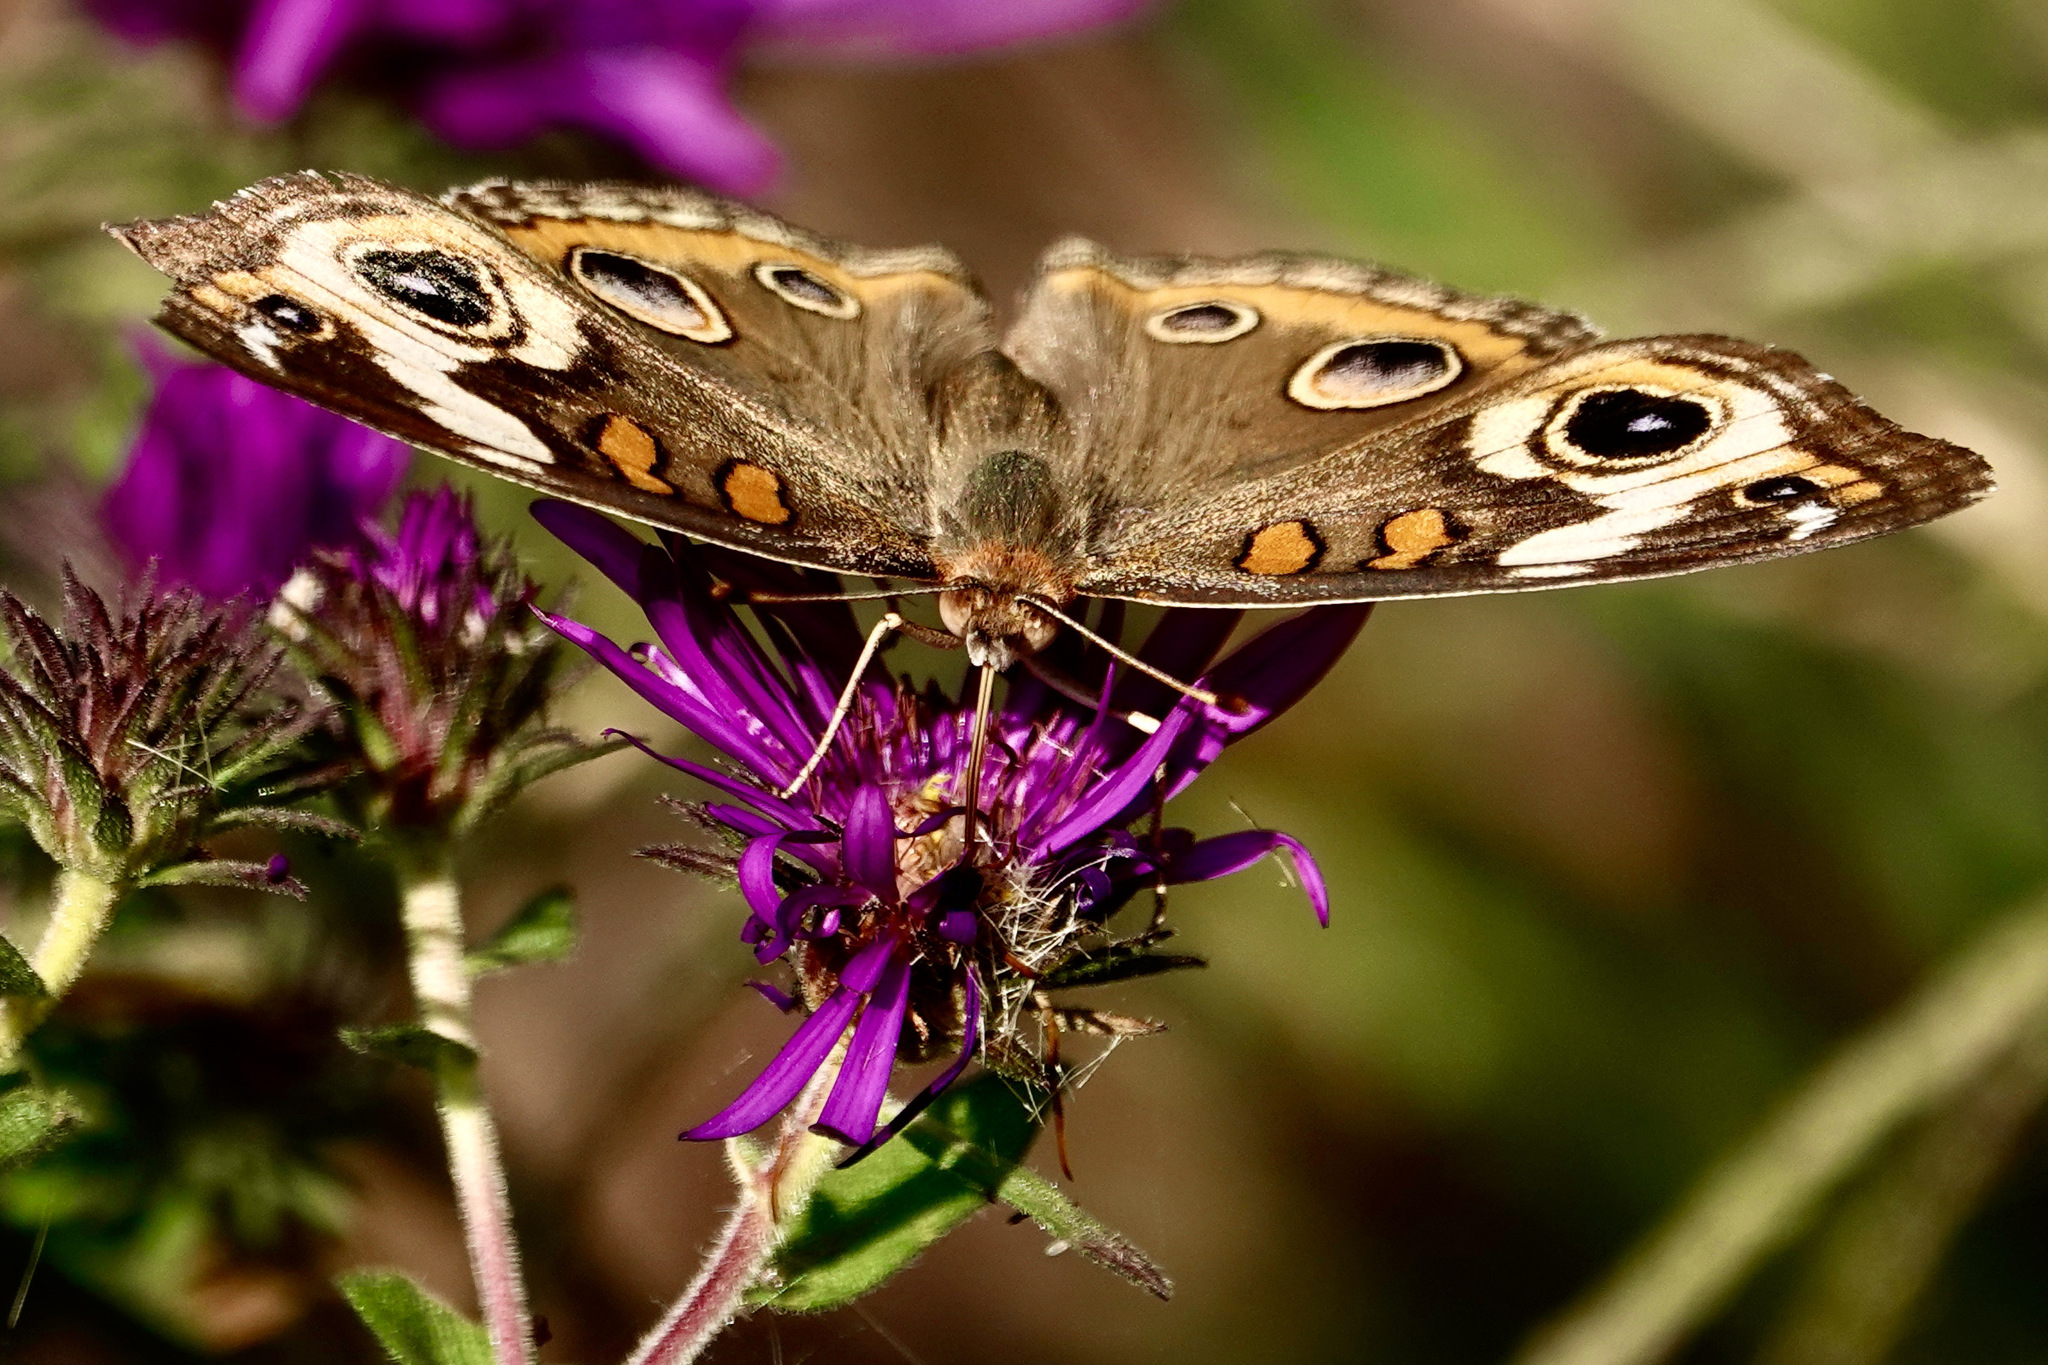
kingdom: Animalia
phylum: Arthropoda
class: Insecta
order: Lepidoptera
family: Nymphalidae
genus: Junonia
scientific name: Junonia coenia
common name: Common buckeye
